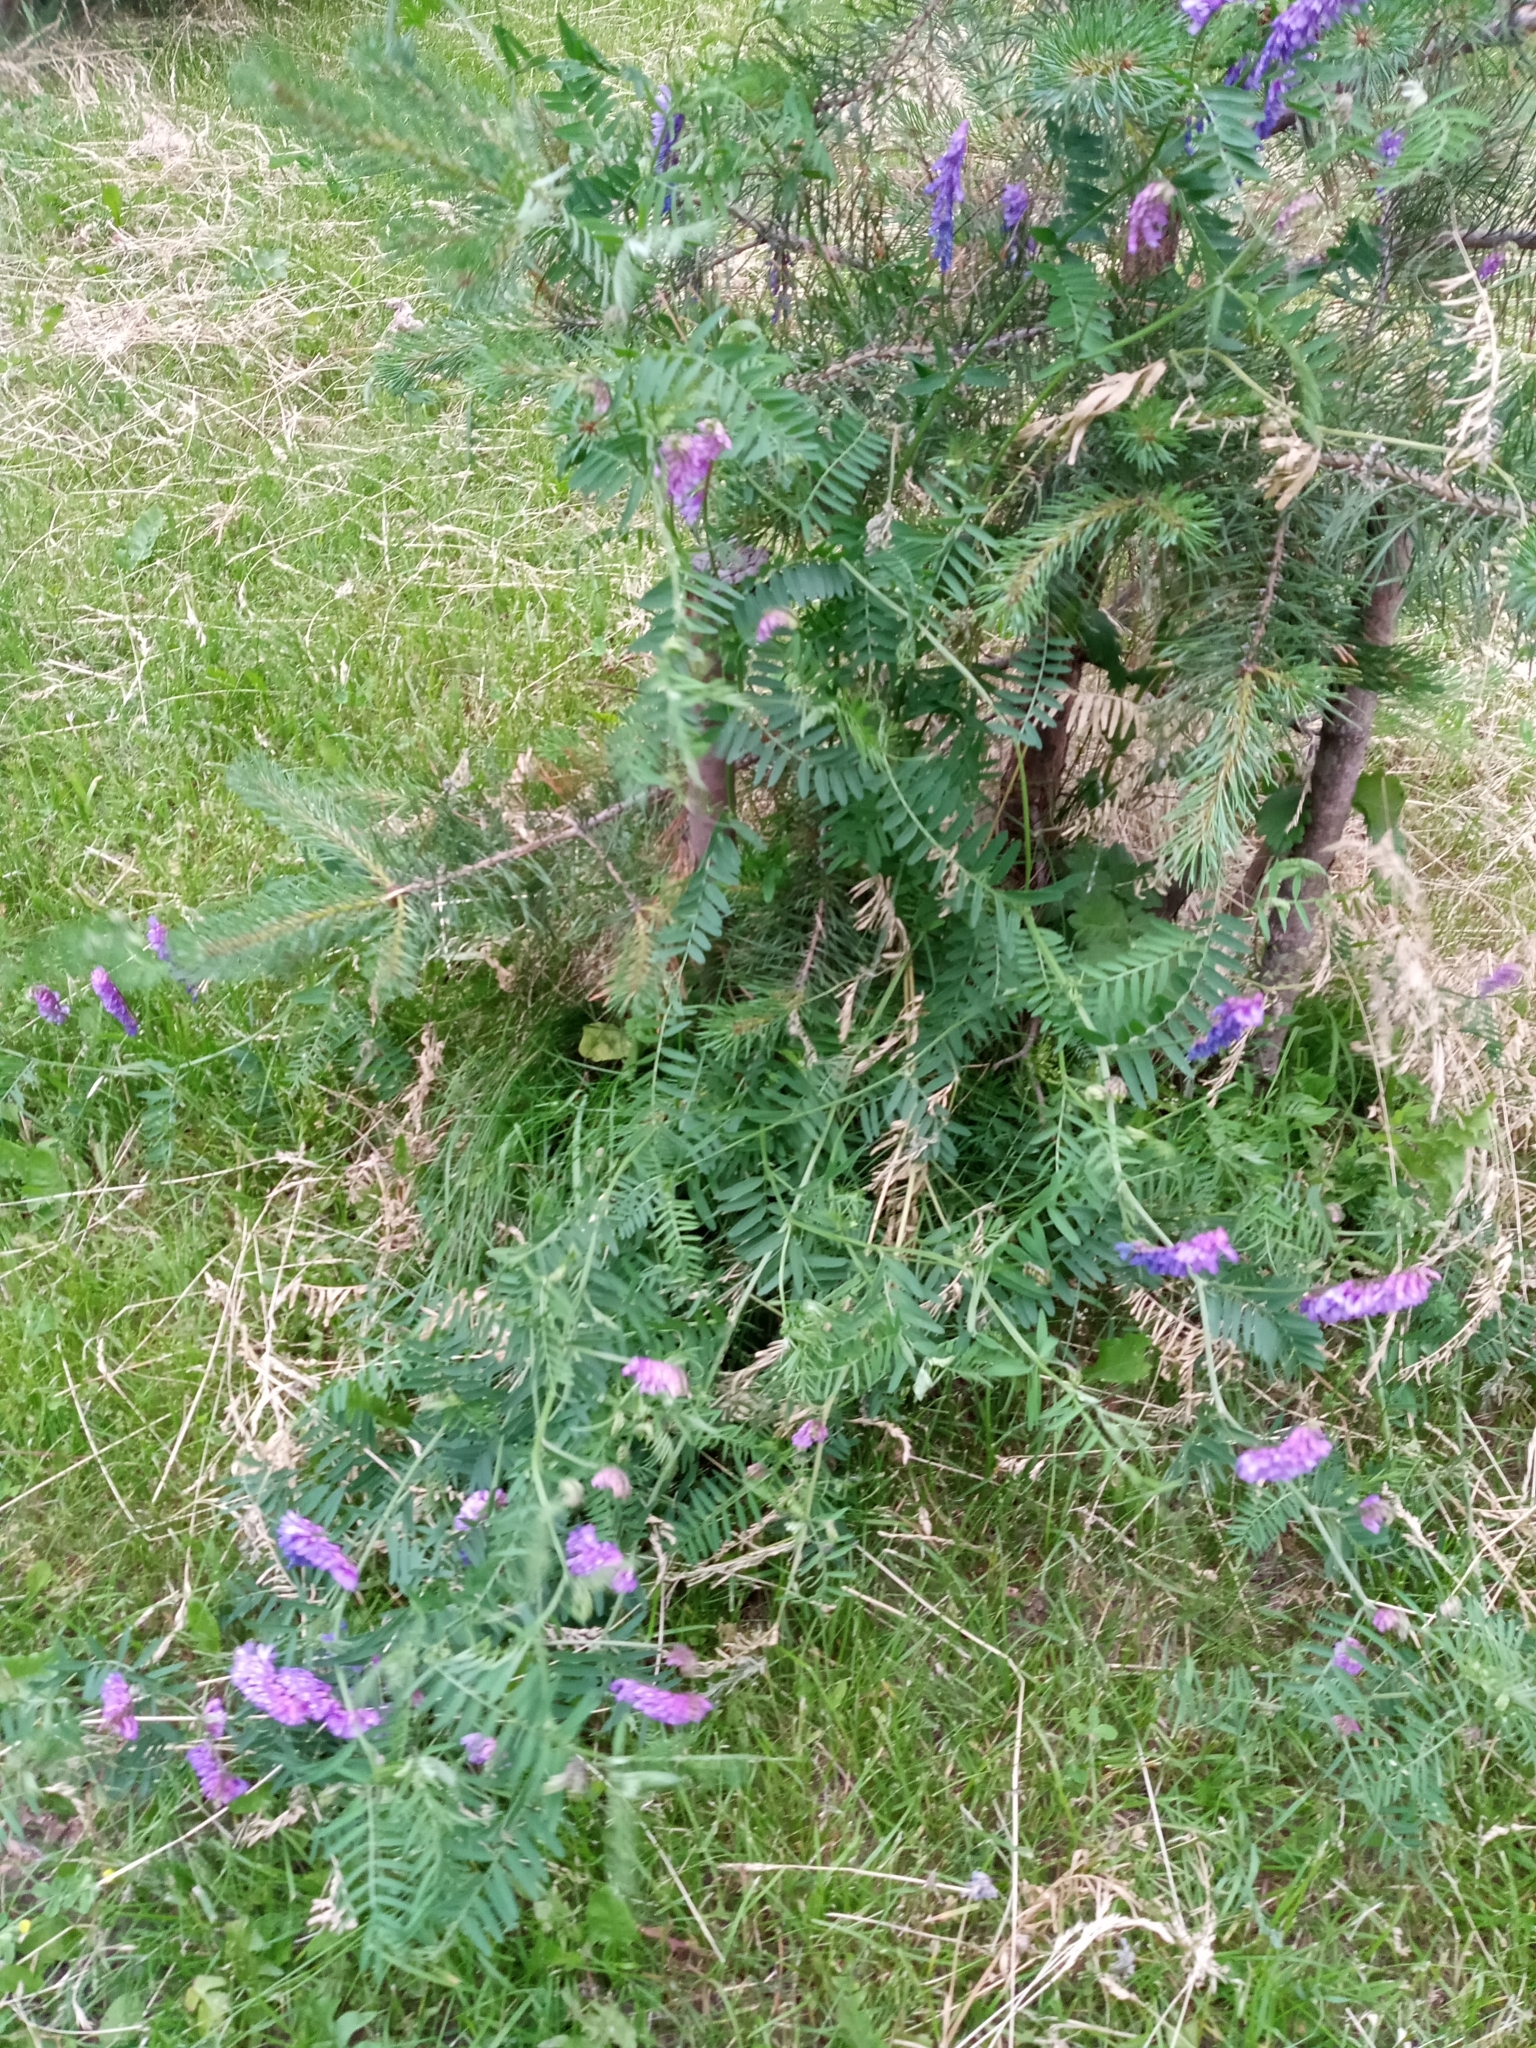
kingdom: Plantae
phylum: Tracheophyta
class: Magnoliopsida
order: Fabales
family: Fabaceae
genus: Vicia
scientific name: Vicia cracca
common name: Bird vetch
